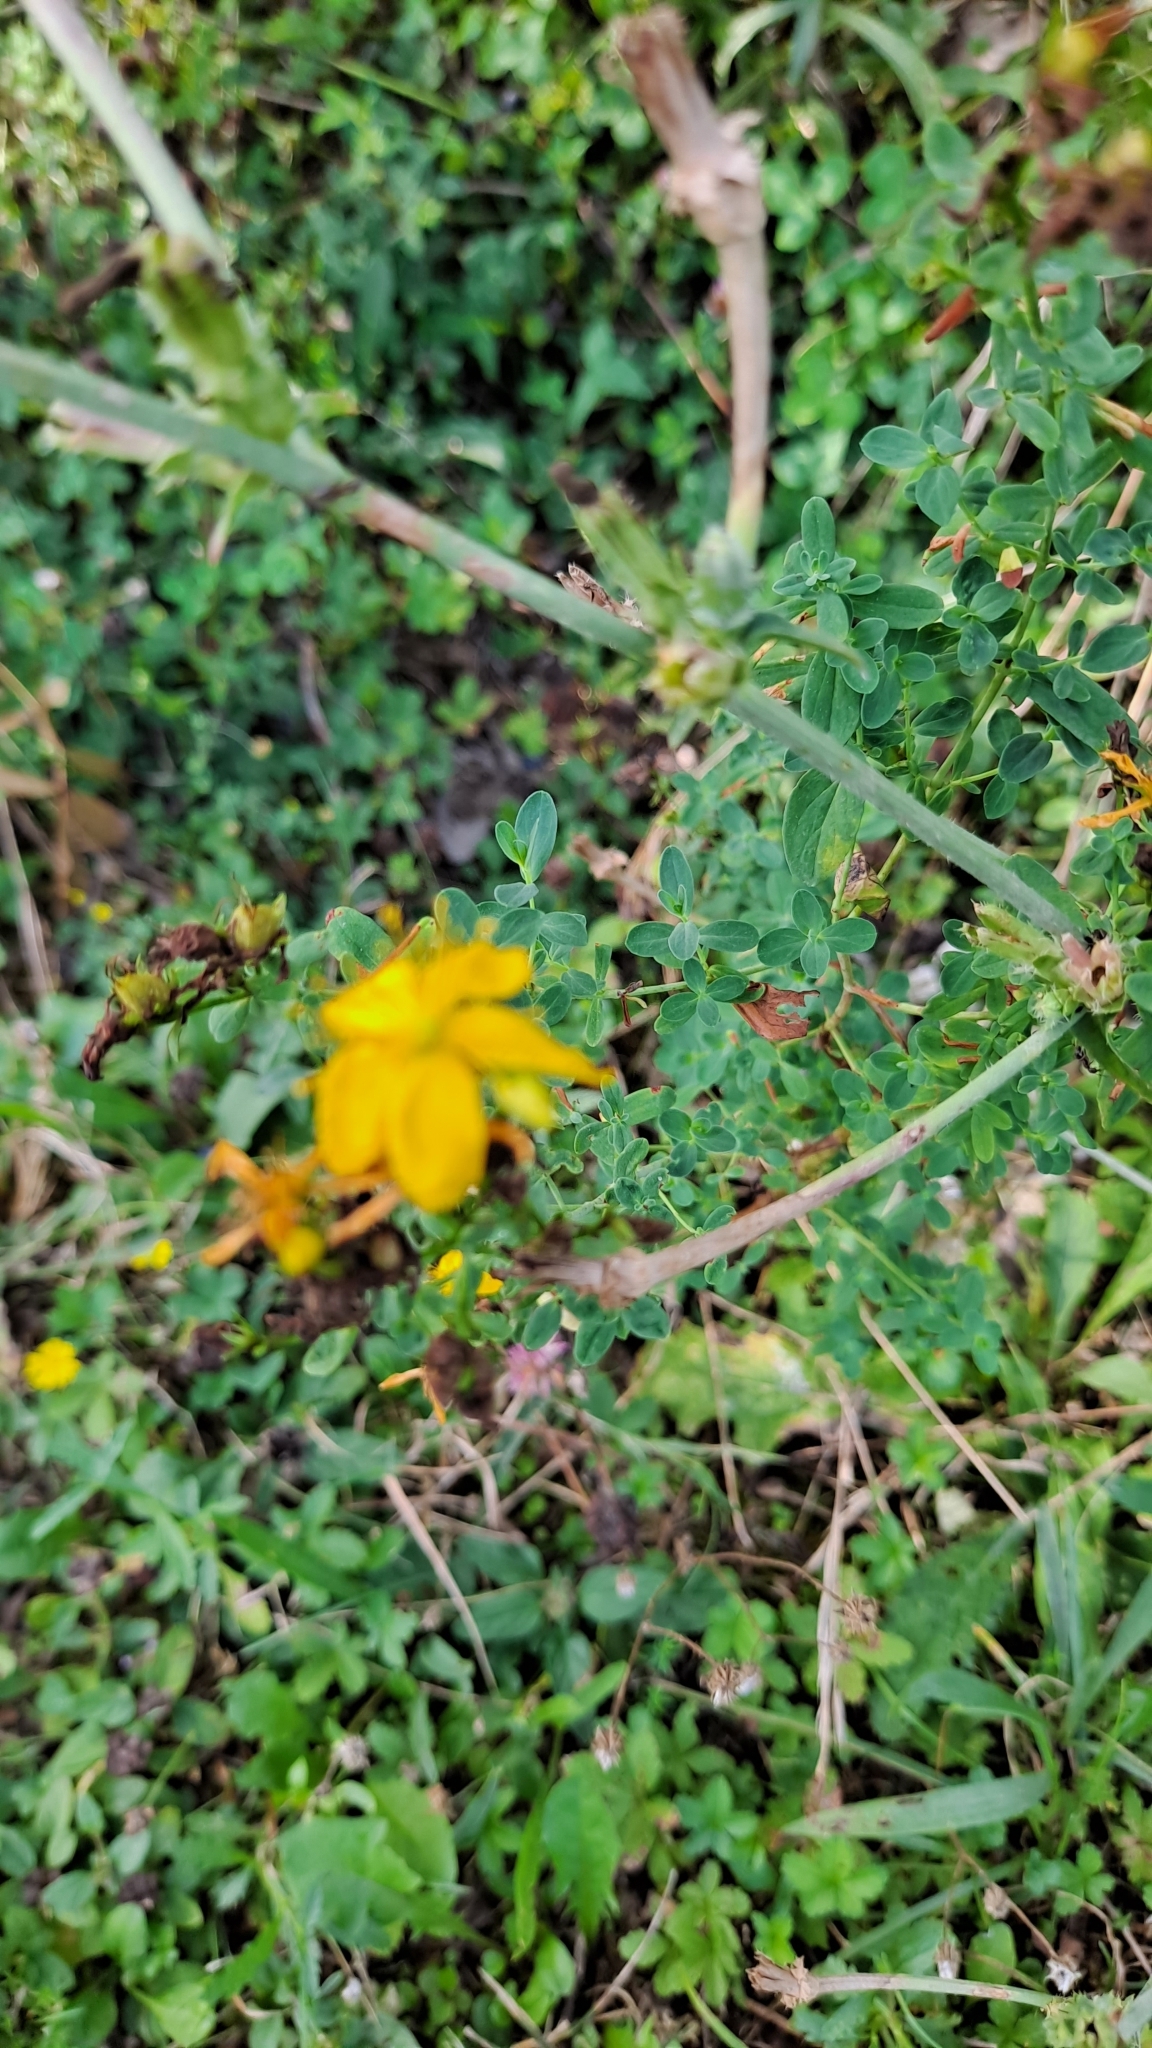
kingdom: Plantae
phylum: Tracheophyta
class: Magnoliopsida
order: Malpighiales
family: Hypericaceae
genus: Hypericum
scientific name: Hypericum perforatum
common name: Common st. johnswort
